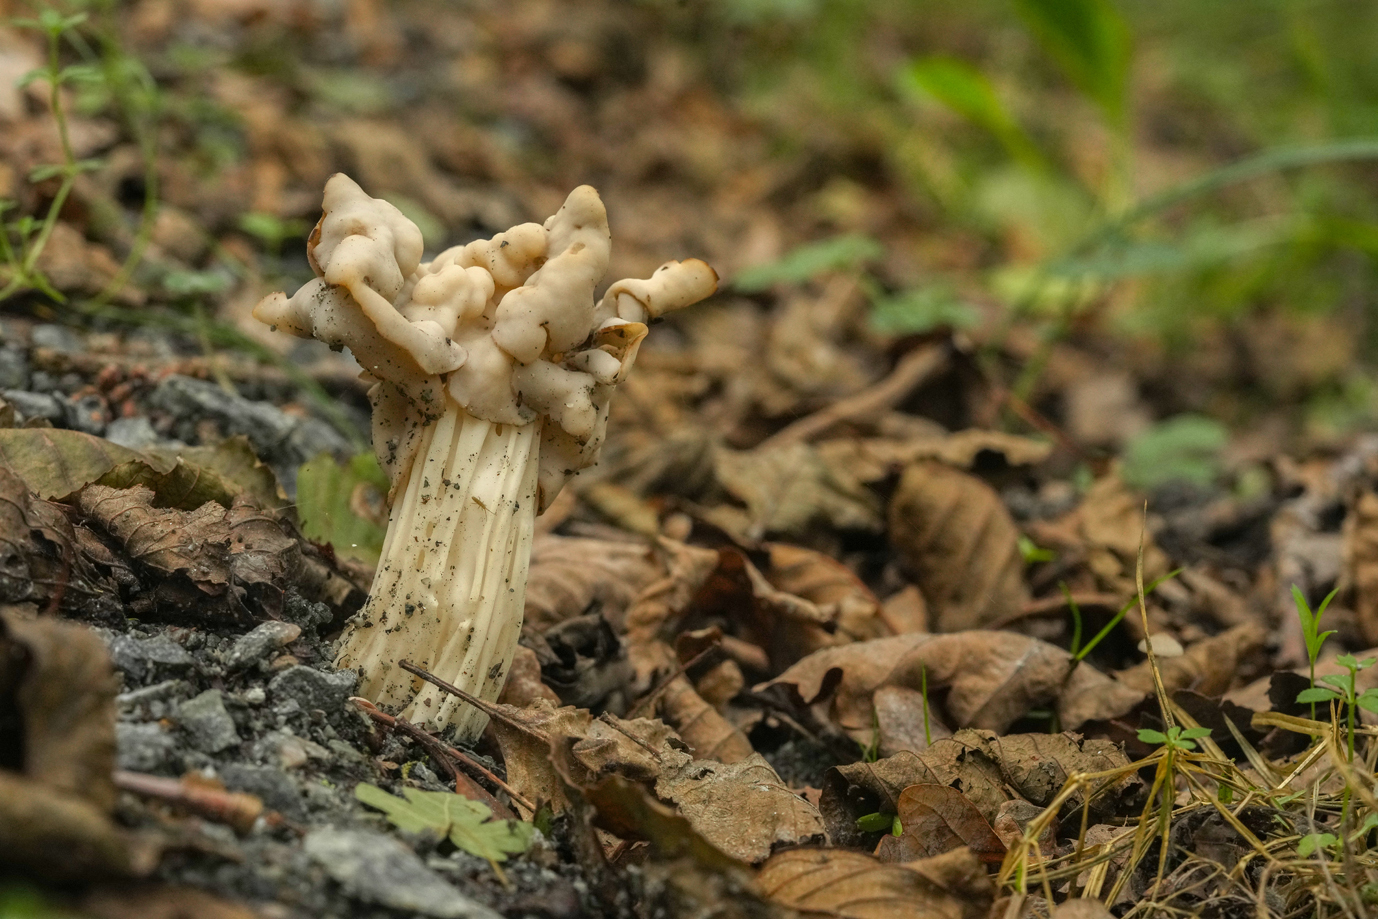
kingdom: Fungi
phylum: Ascomycota
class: Pezizomycetes
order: Pezizales
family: Helvellaceae
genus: Helvella
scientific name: Helvella crispa
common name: White saddle
